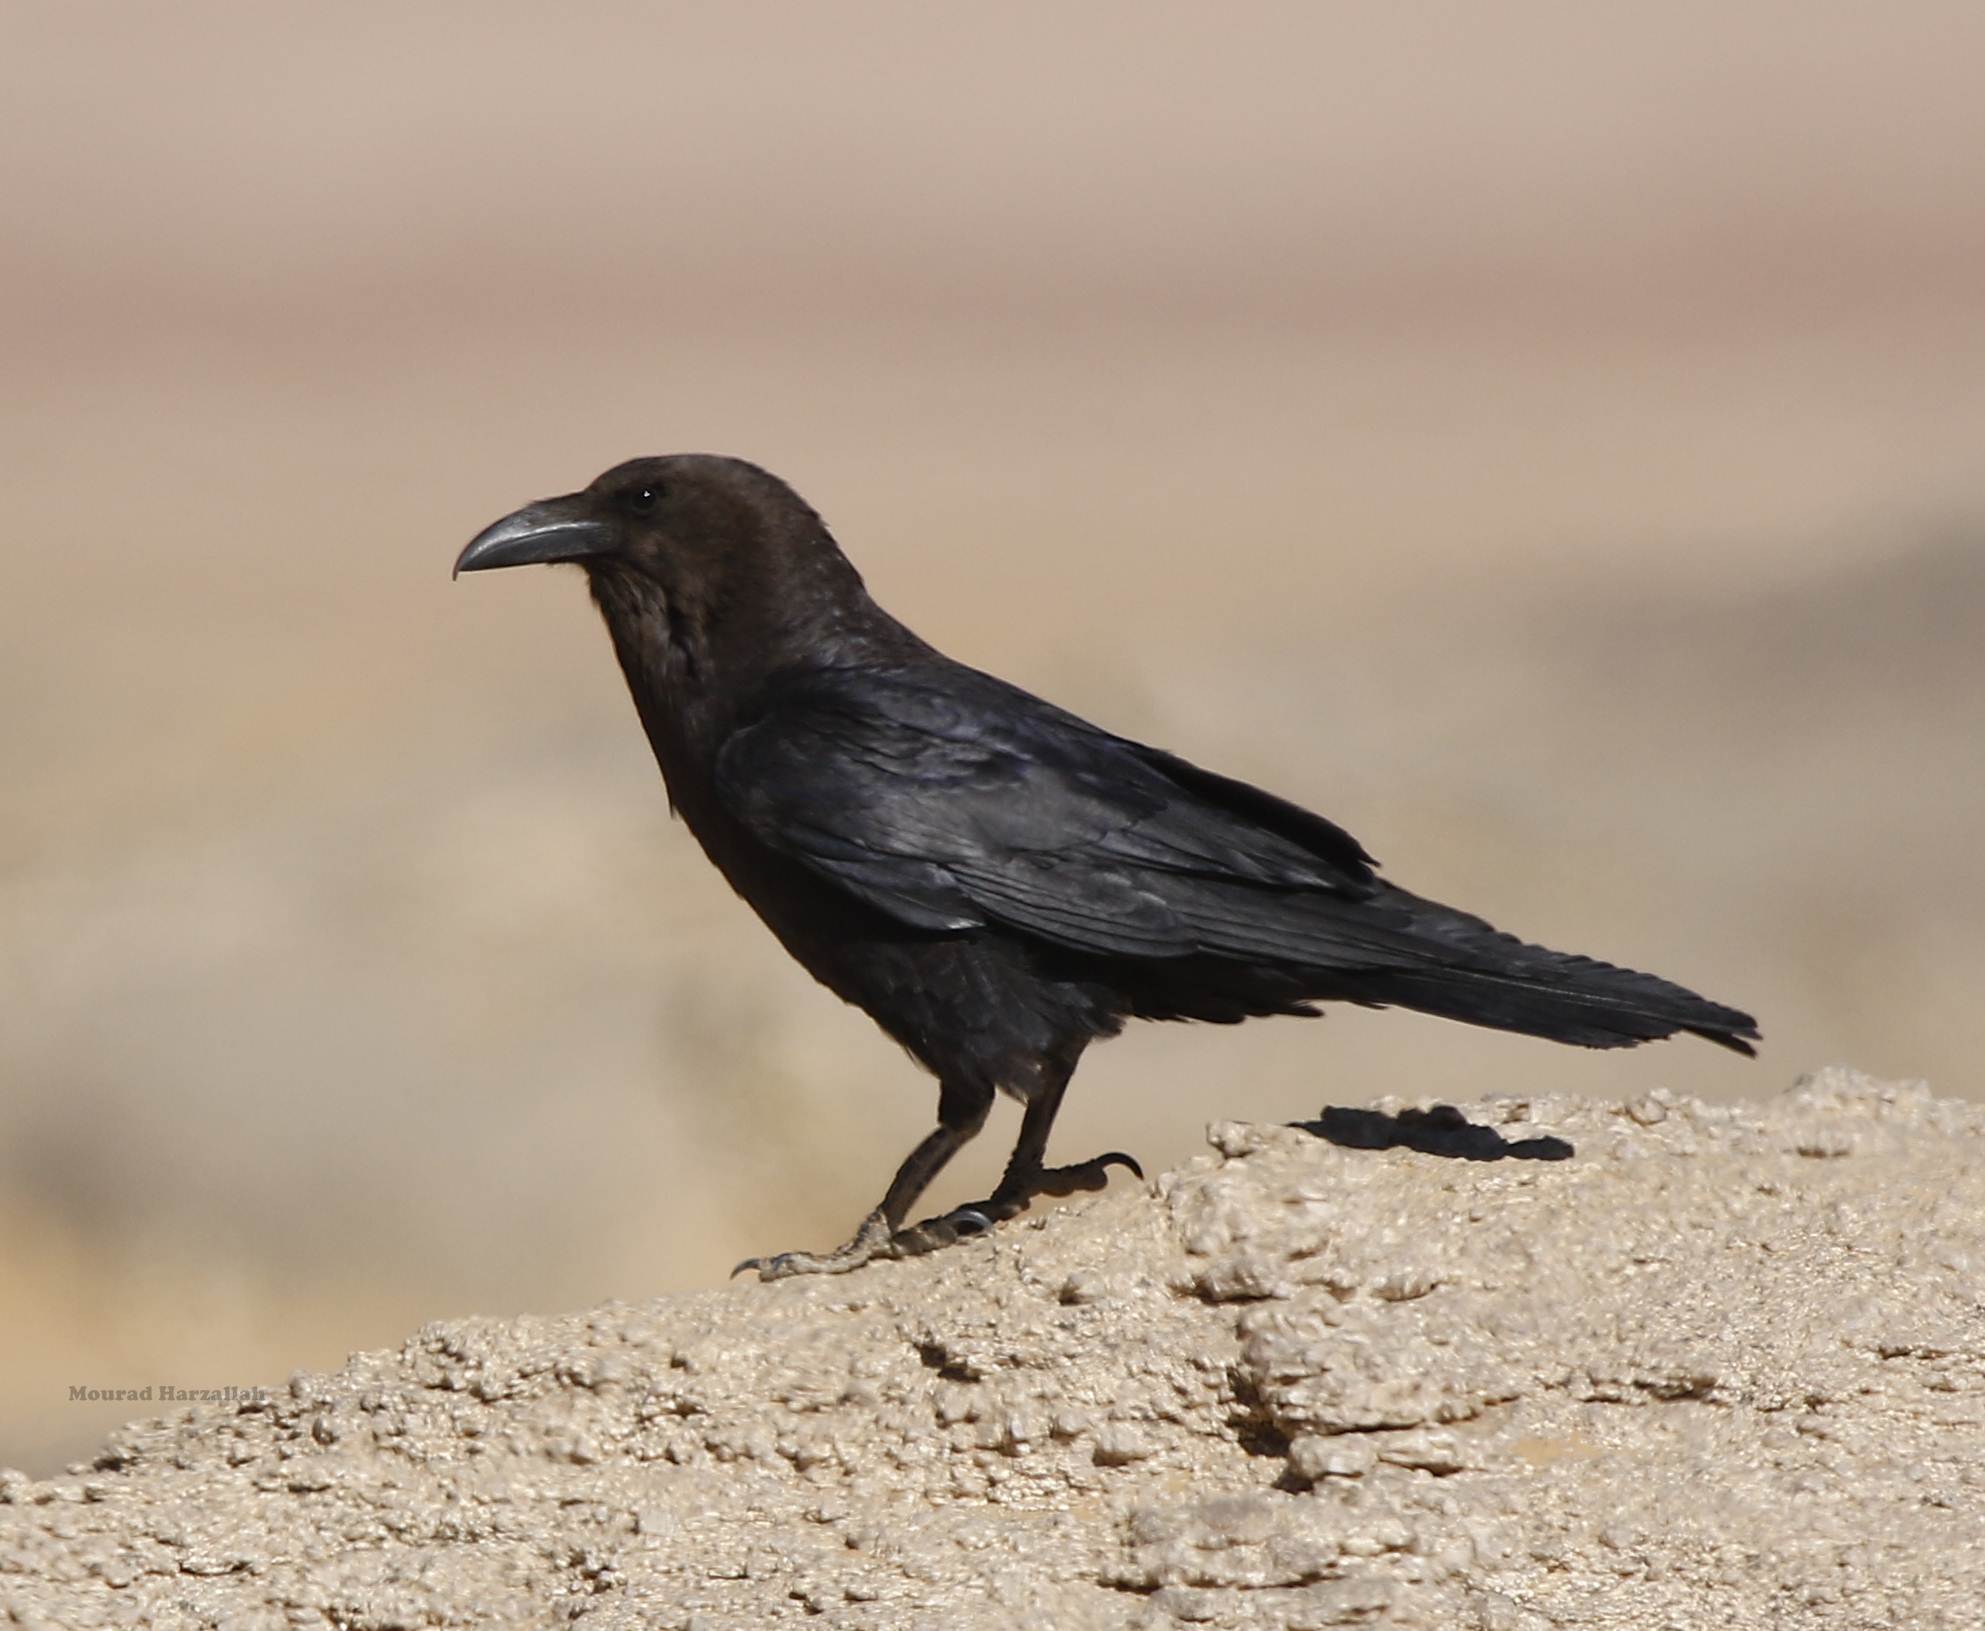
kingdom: Animalia
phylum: Chordata
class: Aves
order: Passeriformes
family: Corvidae
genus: Corvus
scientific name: Corvus ruficollis
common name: Brown-necked raven
